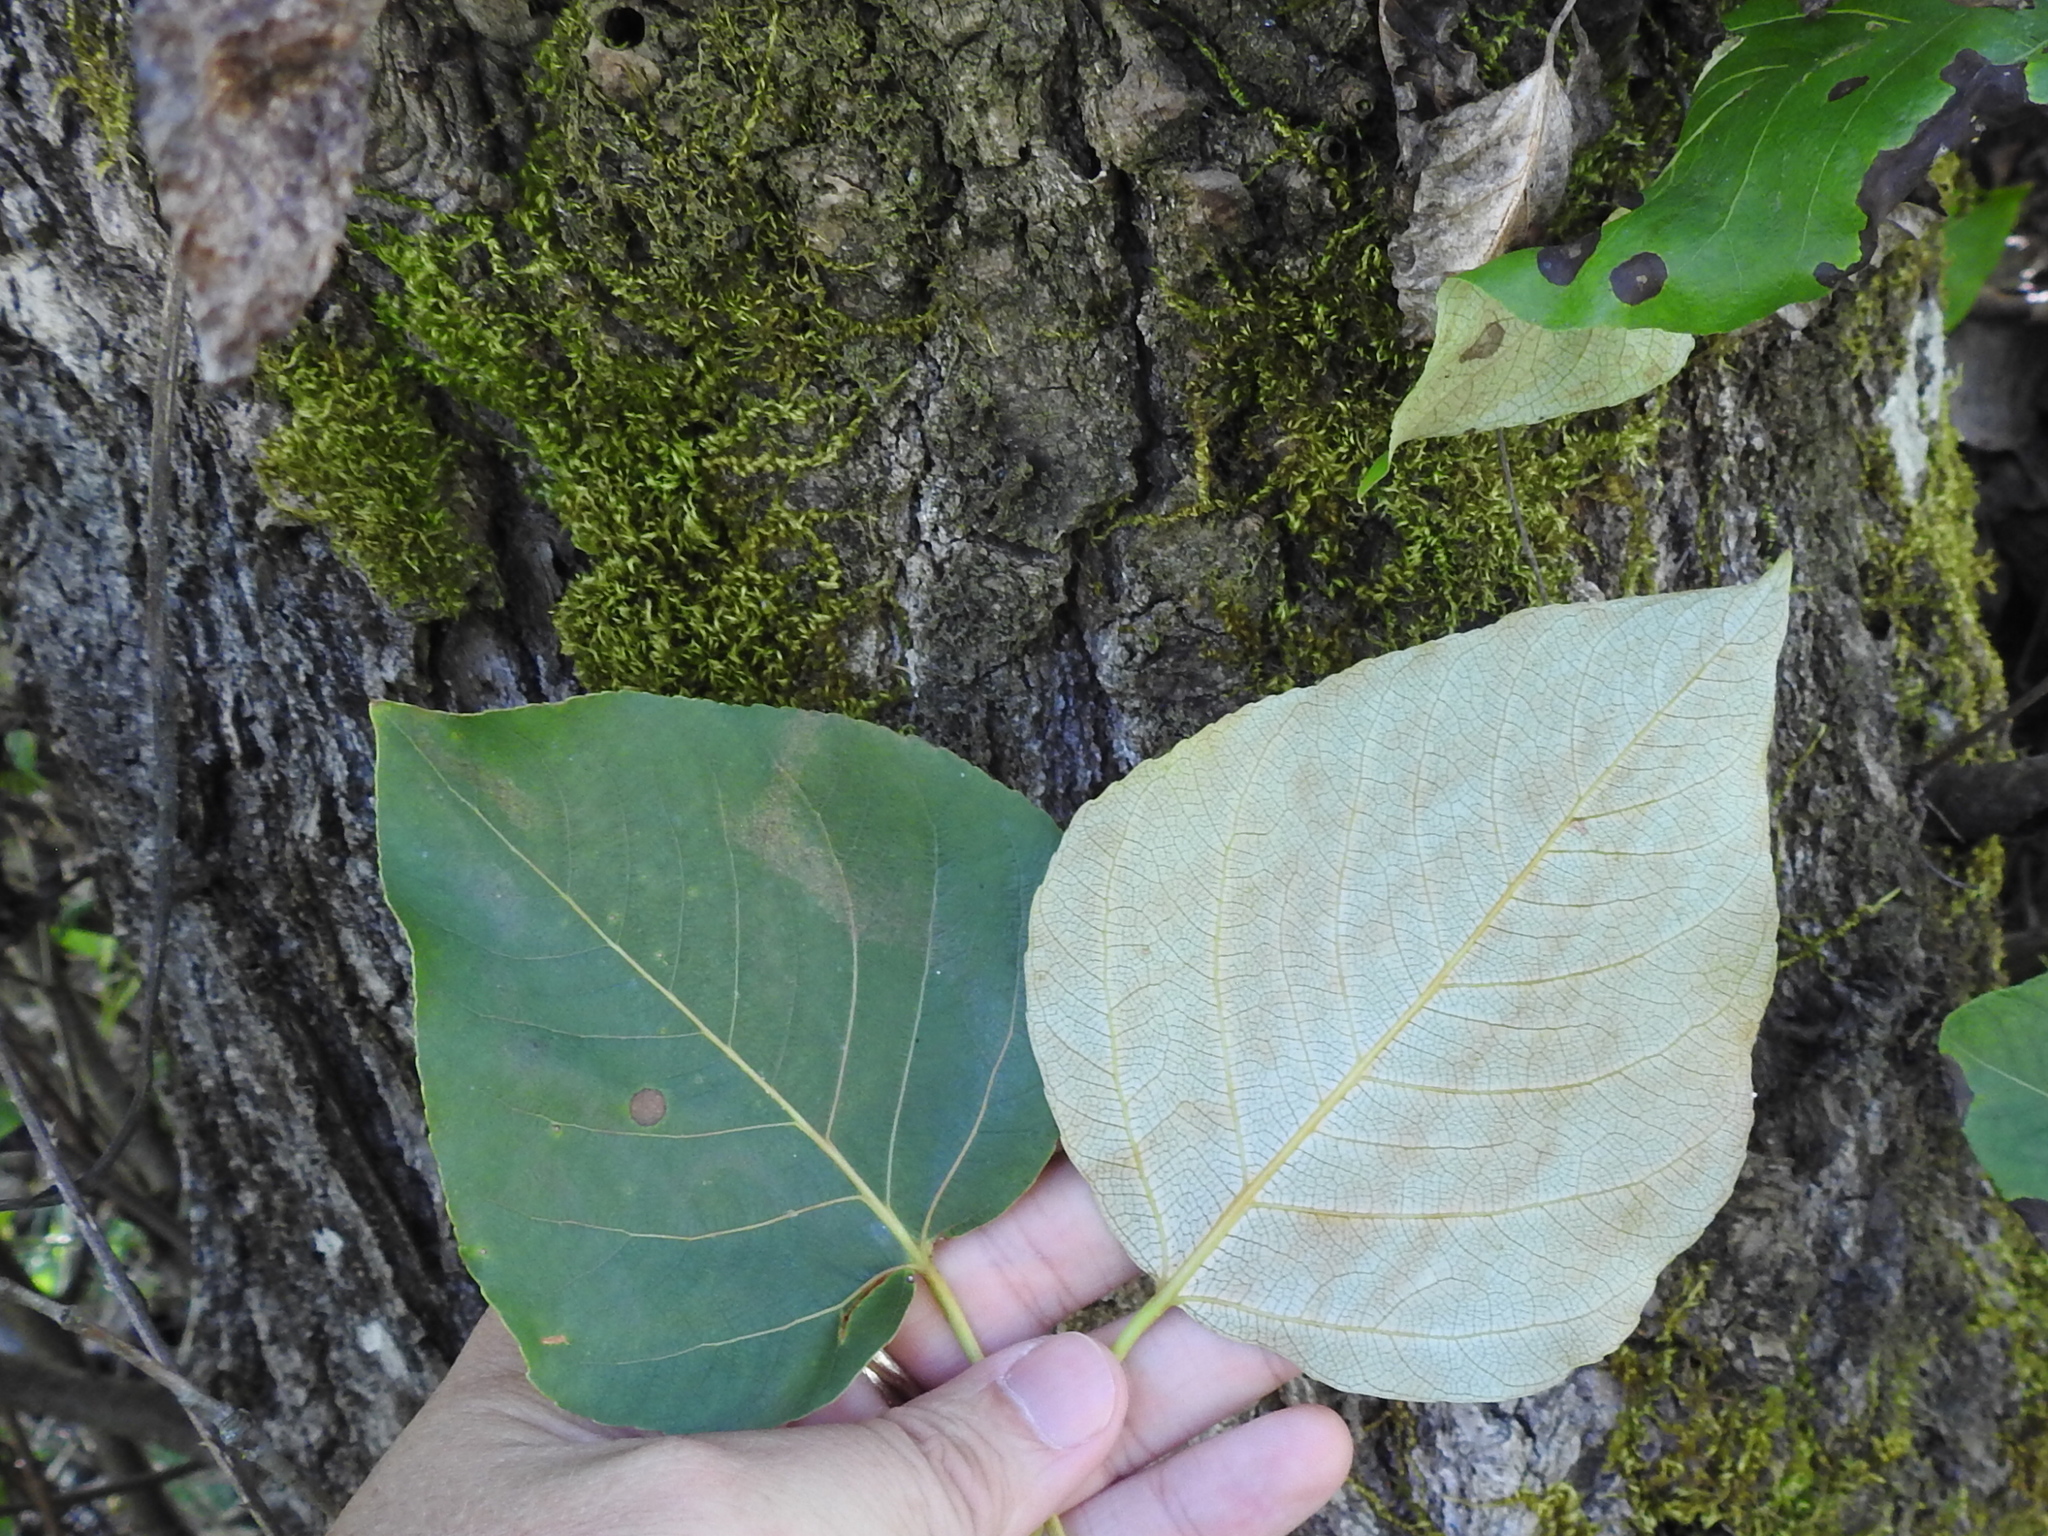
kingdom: Plantae
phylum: Tracheophyta
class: Magnoliopsida
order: Malpighiales
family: Salicaceae
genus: Populus
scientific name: Populus trichocarpa
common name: Black cottonwood
